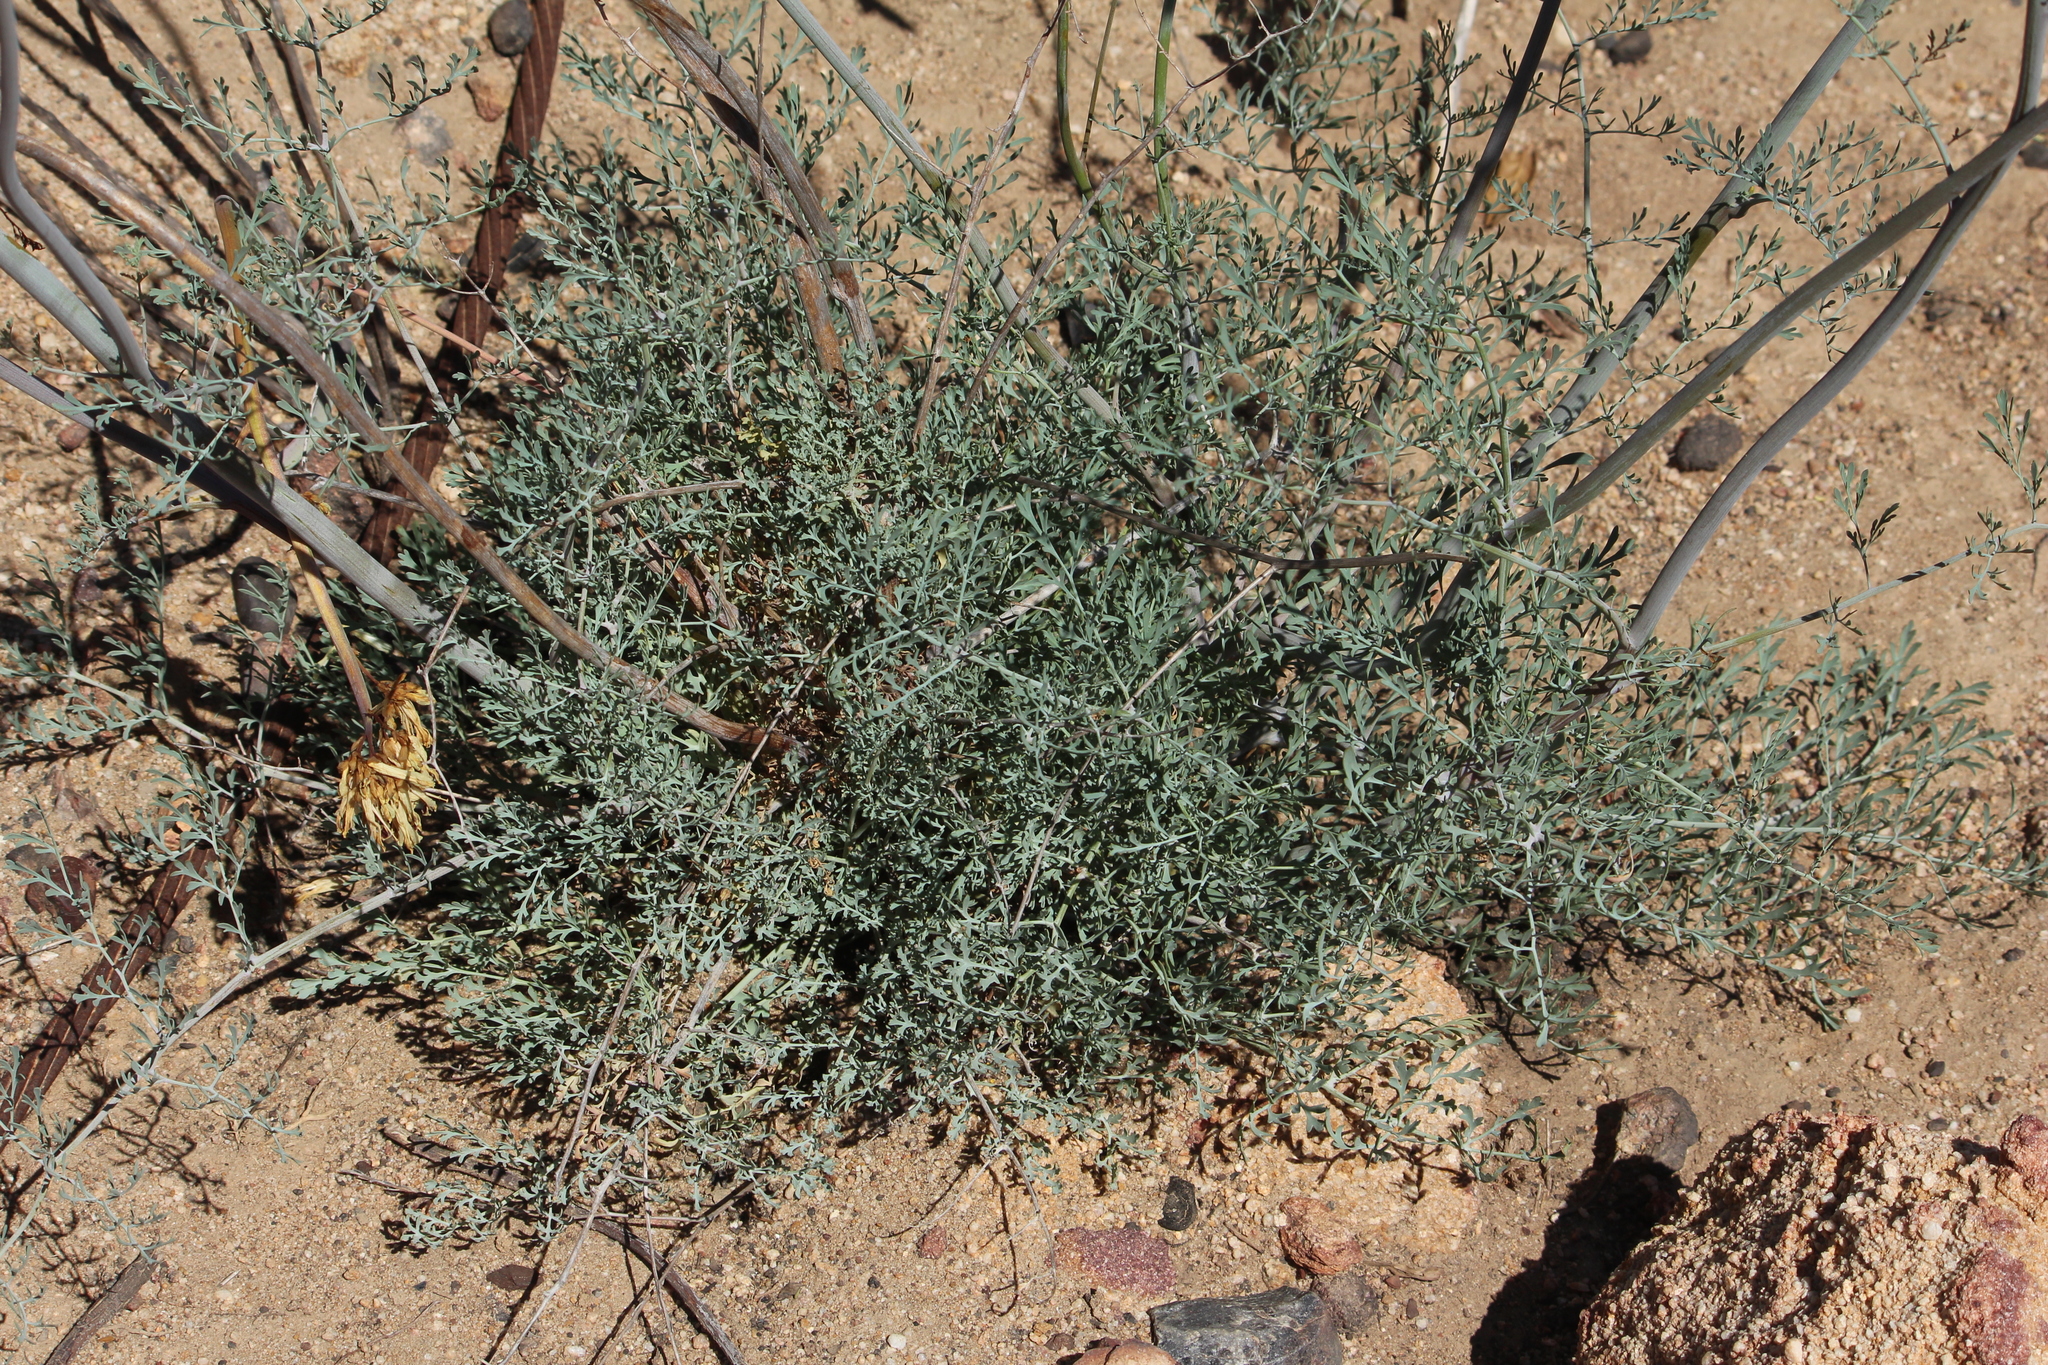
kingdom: Plantae
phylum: Tracheophyta
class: Magnoliopsida
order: Ranunculales
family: Papaveraceae
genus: Ehrendorferia
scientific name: Ehrendorferia ochroleuca
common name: White eardrops
